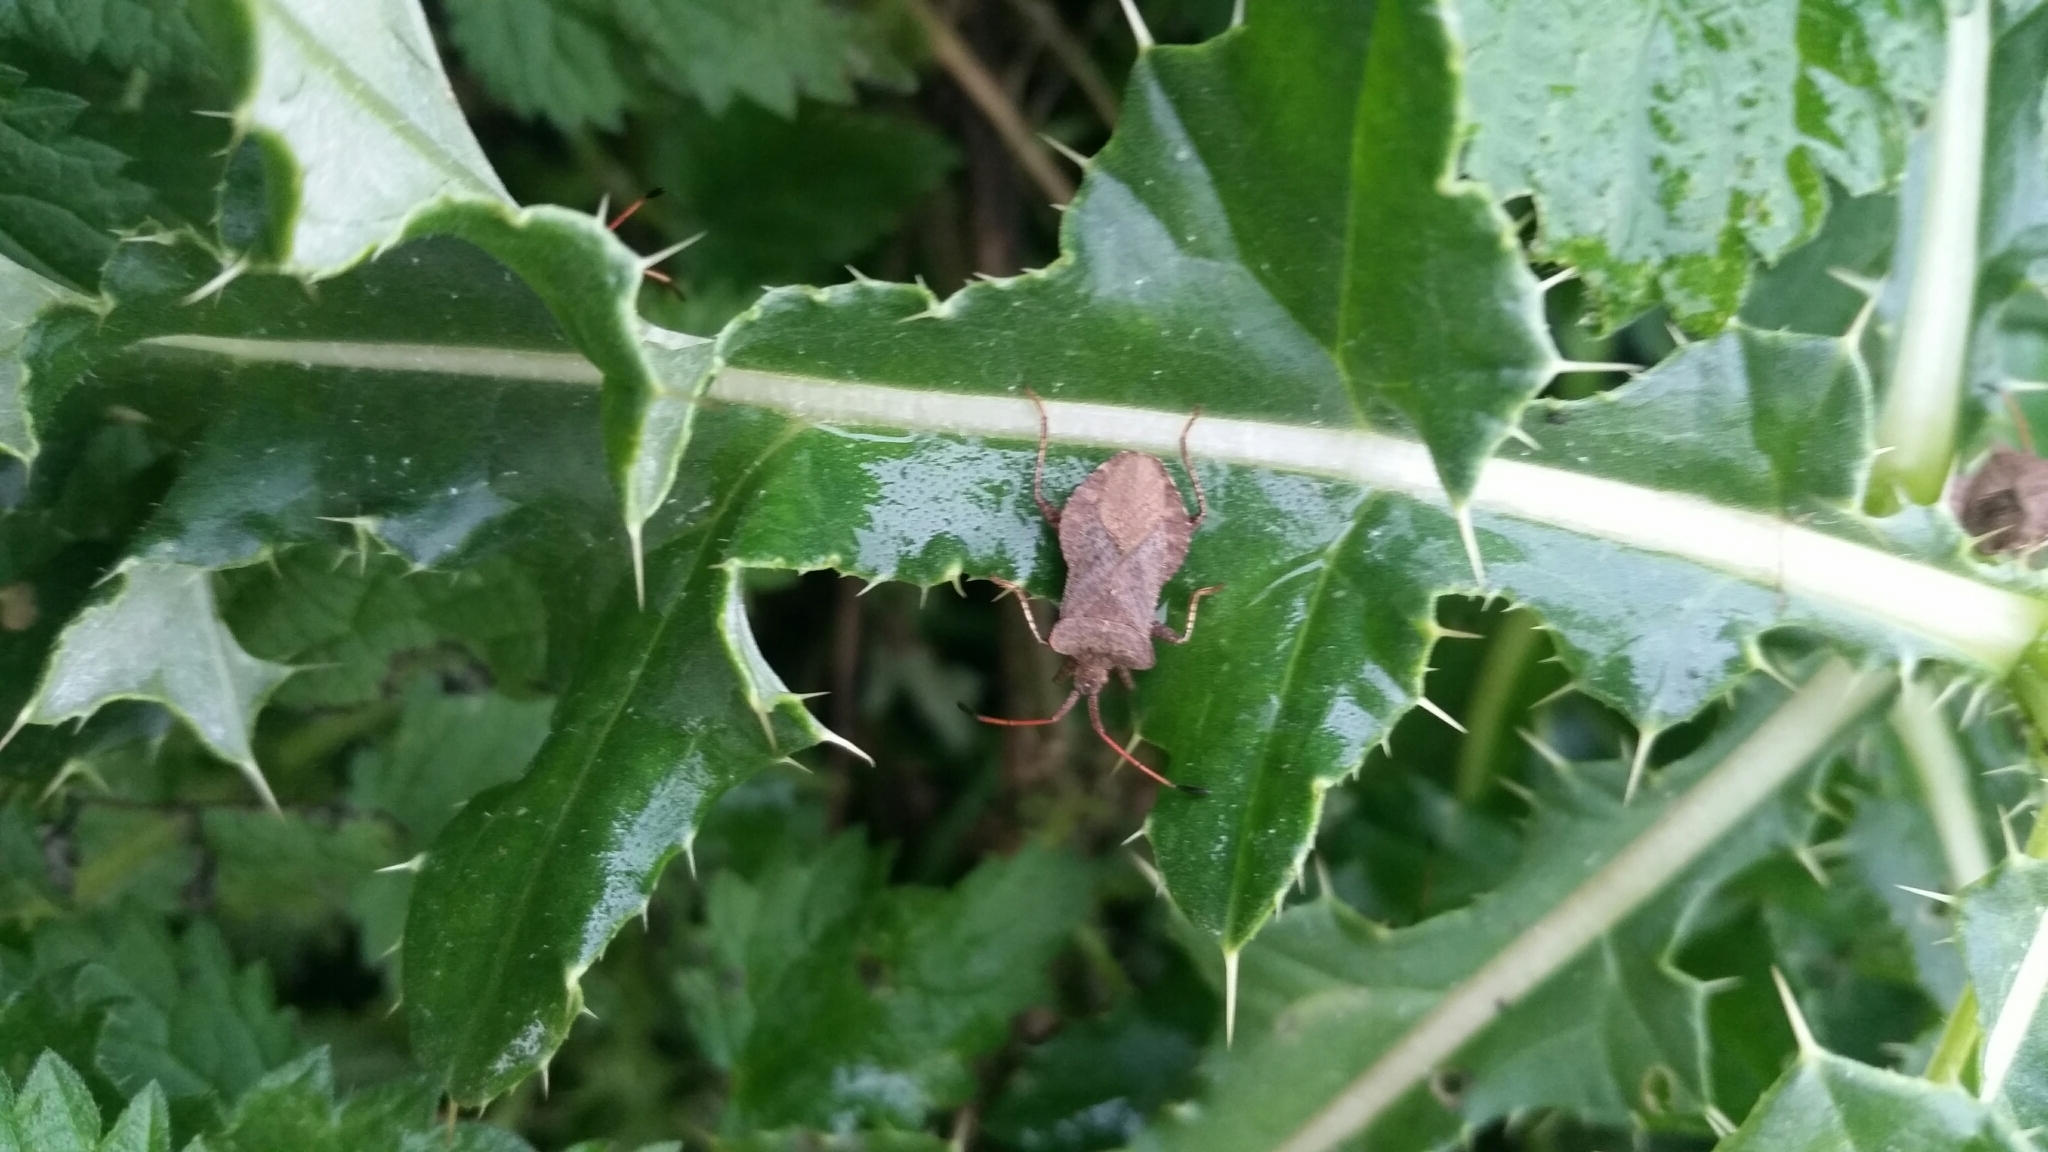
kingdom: Animalia
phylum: Arthropoda
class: Insecta
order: Hemiptera
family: Coreidae
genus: Coreus
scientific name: Coreus marginatus
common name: Dock bug
